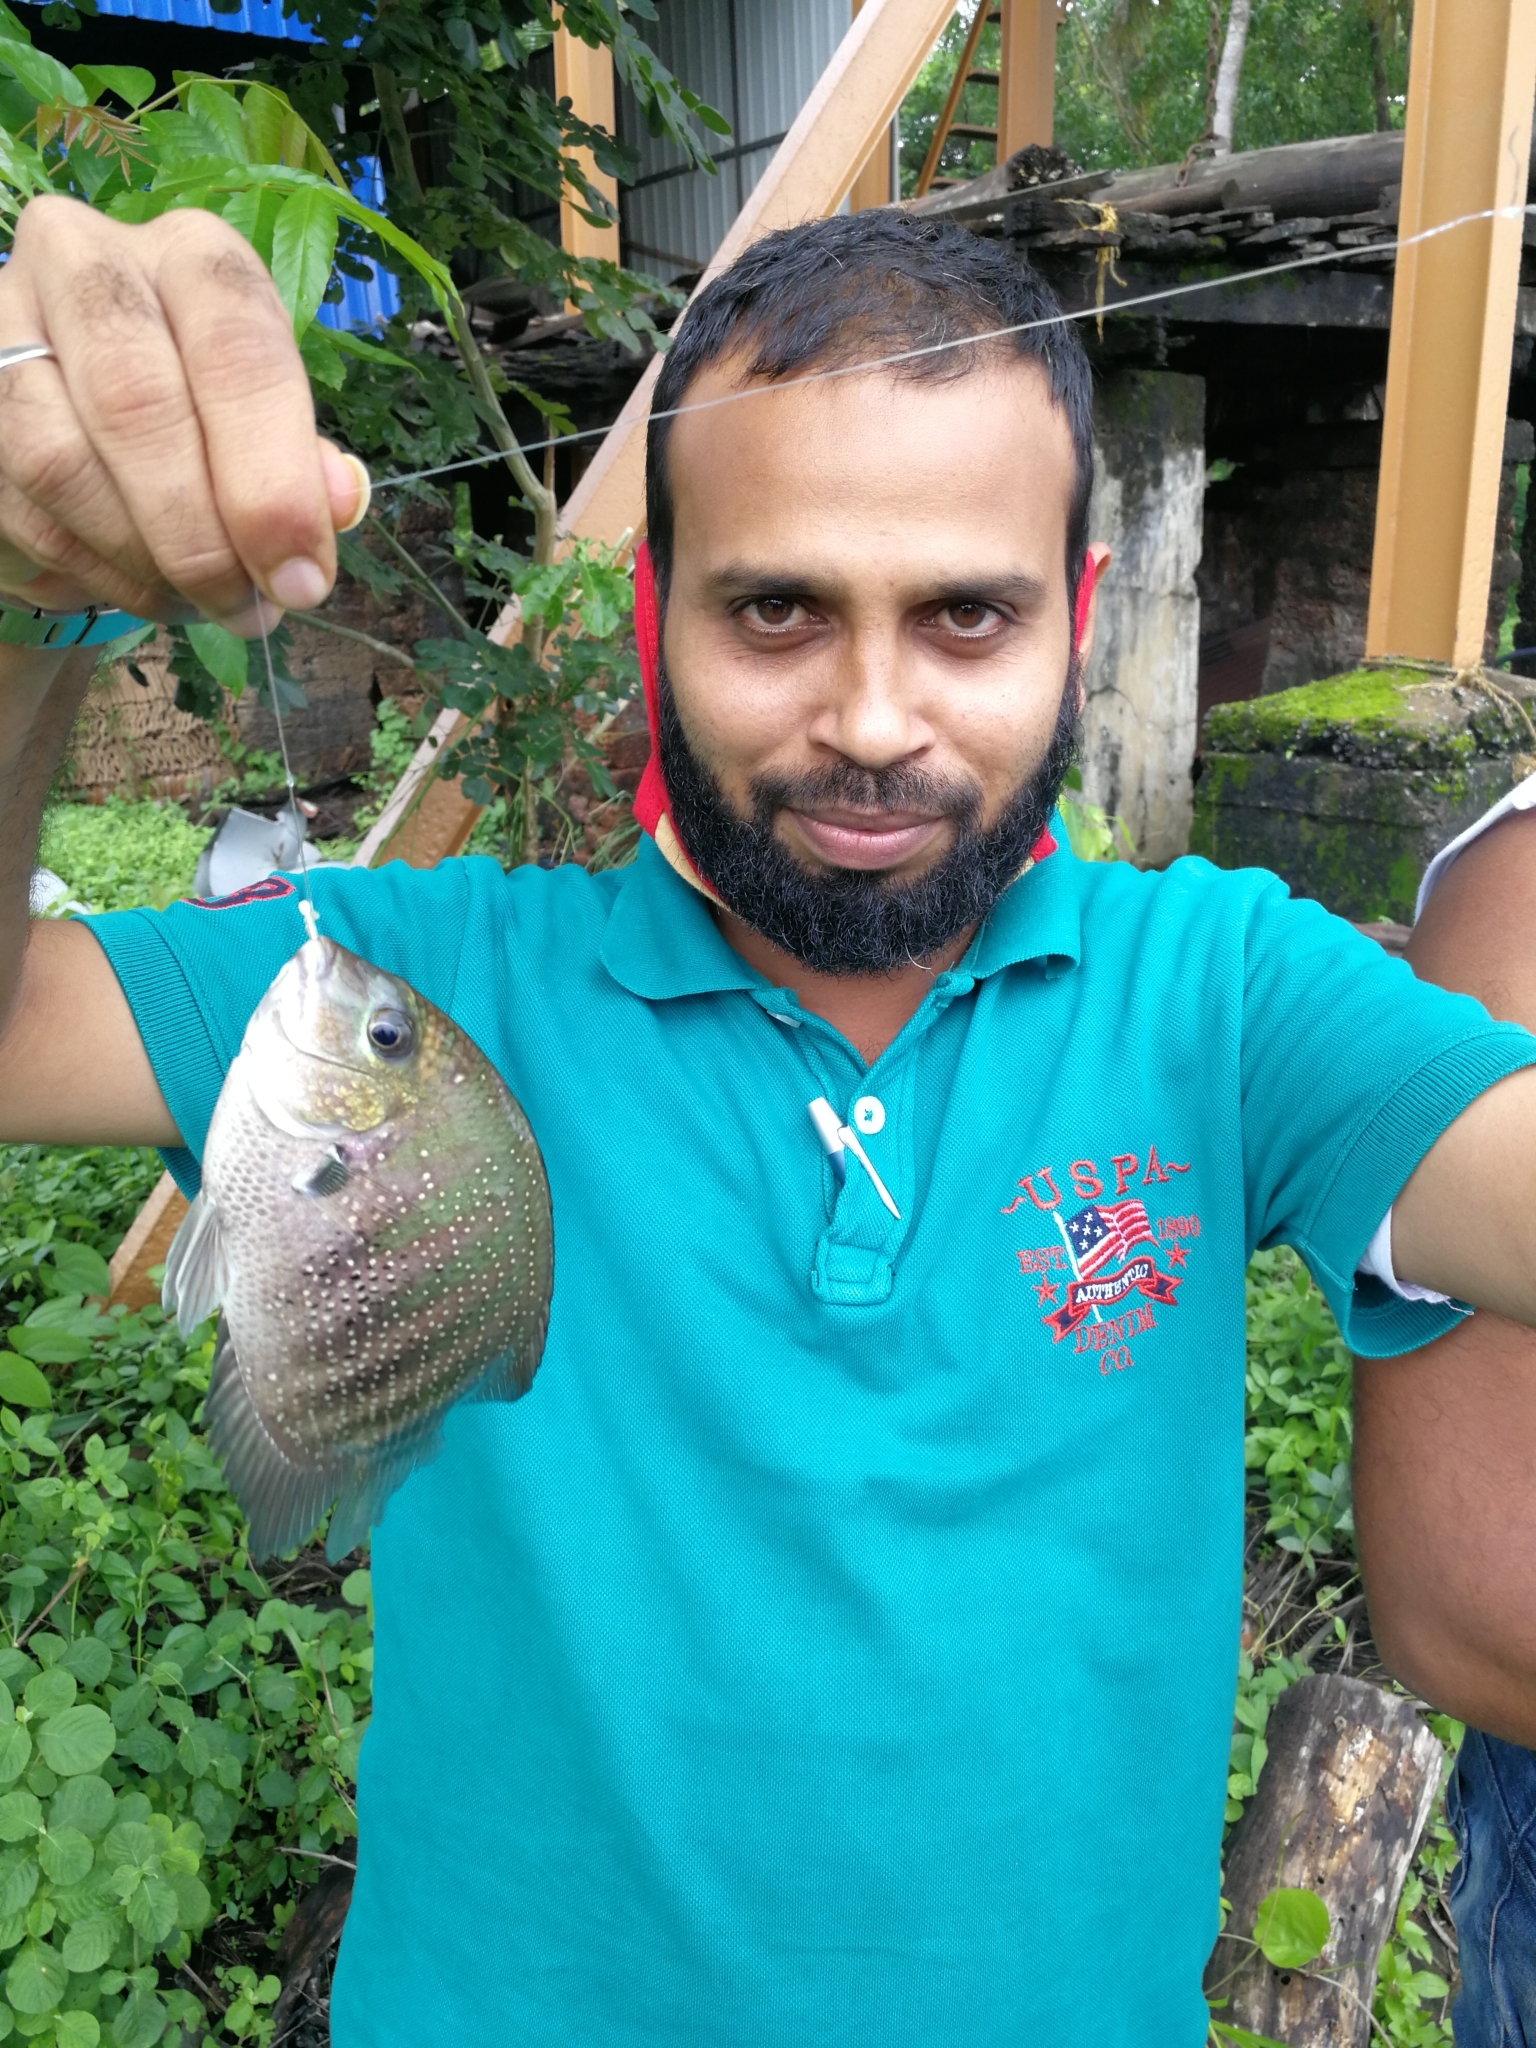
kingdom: Animalia
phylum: Chordata
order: Perciformes
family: Cichlidae
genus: Etroplus
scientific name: Etroplus suratensis
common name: Green chromide
